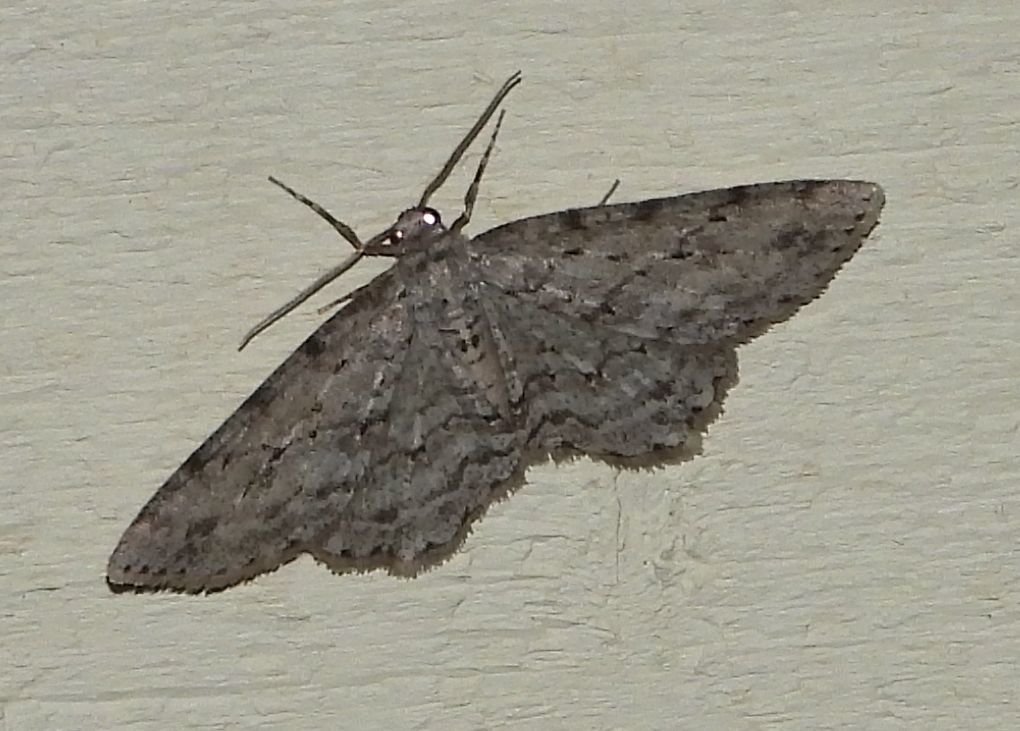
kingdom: Animalia
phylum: Arthropoda
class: Insecta
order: Lepidoptera
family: Geometridae
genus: Ectropis
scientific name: Ectropis crepuscularia
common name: Engrailed
